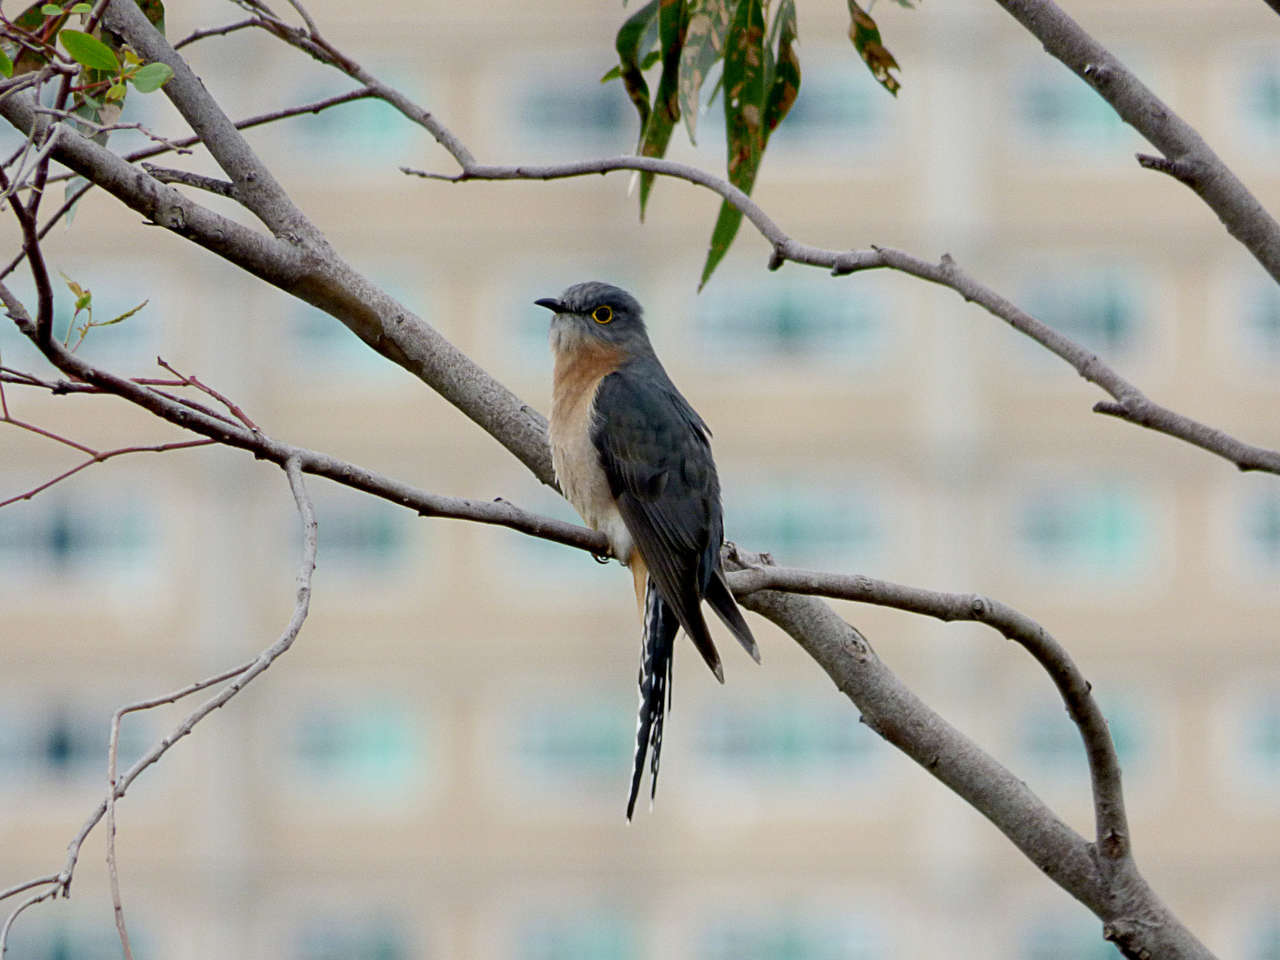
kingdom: Animalia
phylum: Chordata
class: Aves
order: Cuculiformes
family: Cuculidae
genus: Cacomantis
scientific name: Cacomantis flabelliformis
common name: Fan-tailed cuckoo
